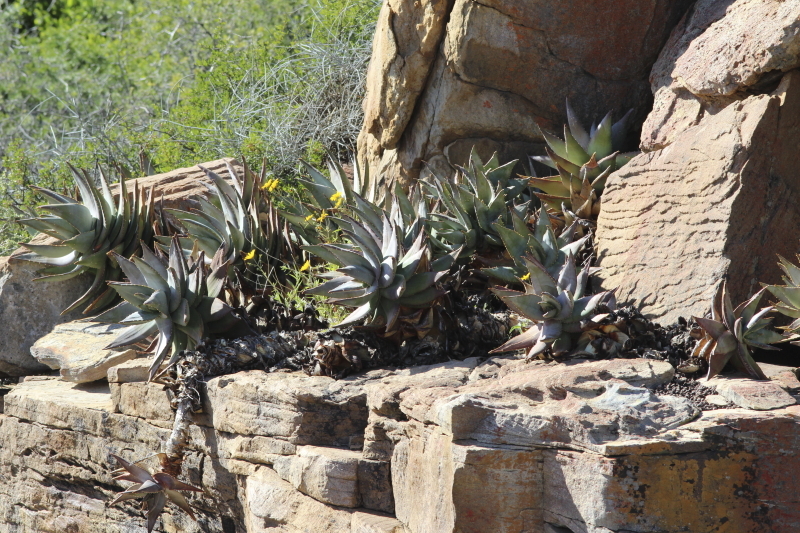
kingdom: Plantae
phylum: Tracheophyta
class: Liliopsida
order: Asparagales
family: Asphodelaceae
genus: Aloe
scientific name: Aloe perfoliata
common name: Mitra aloe
